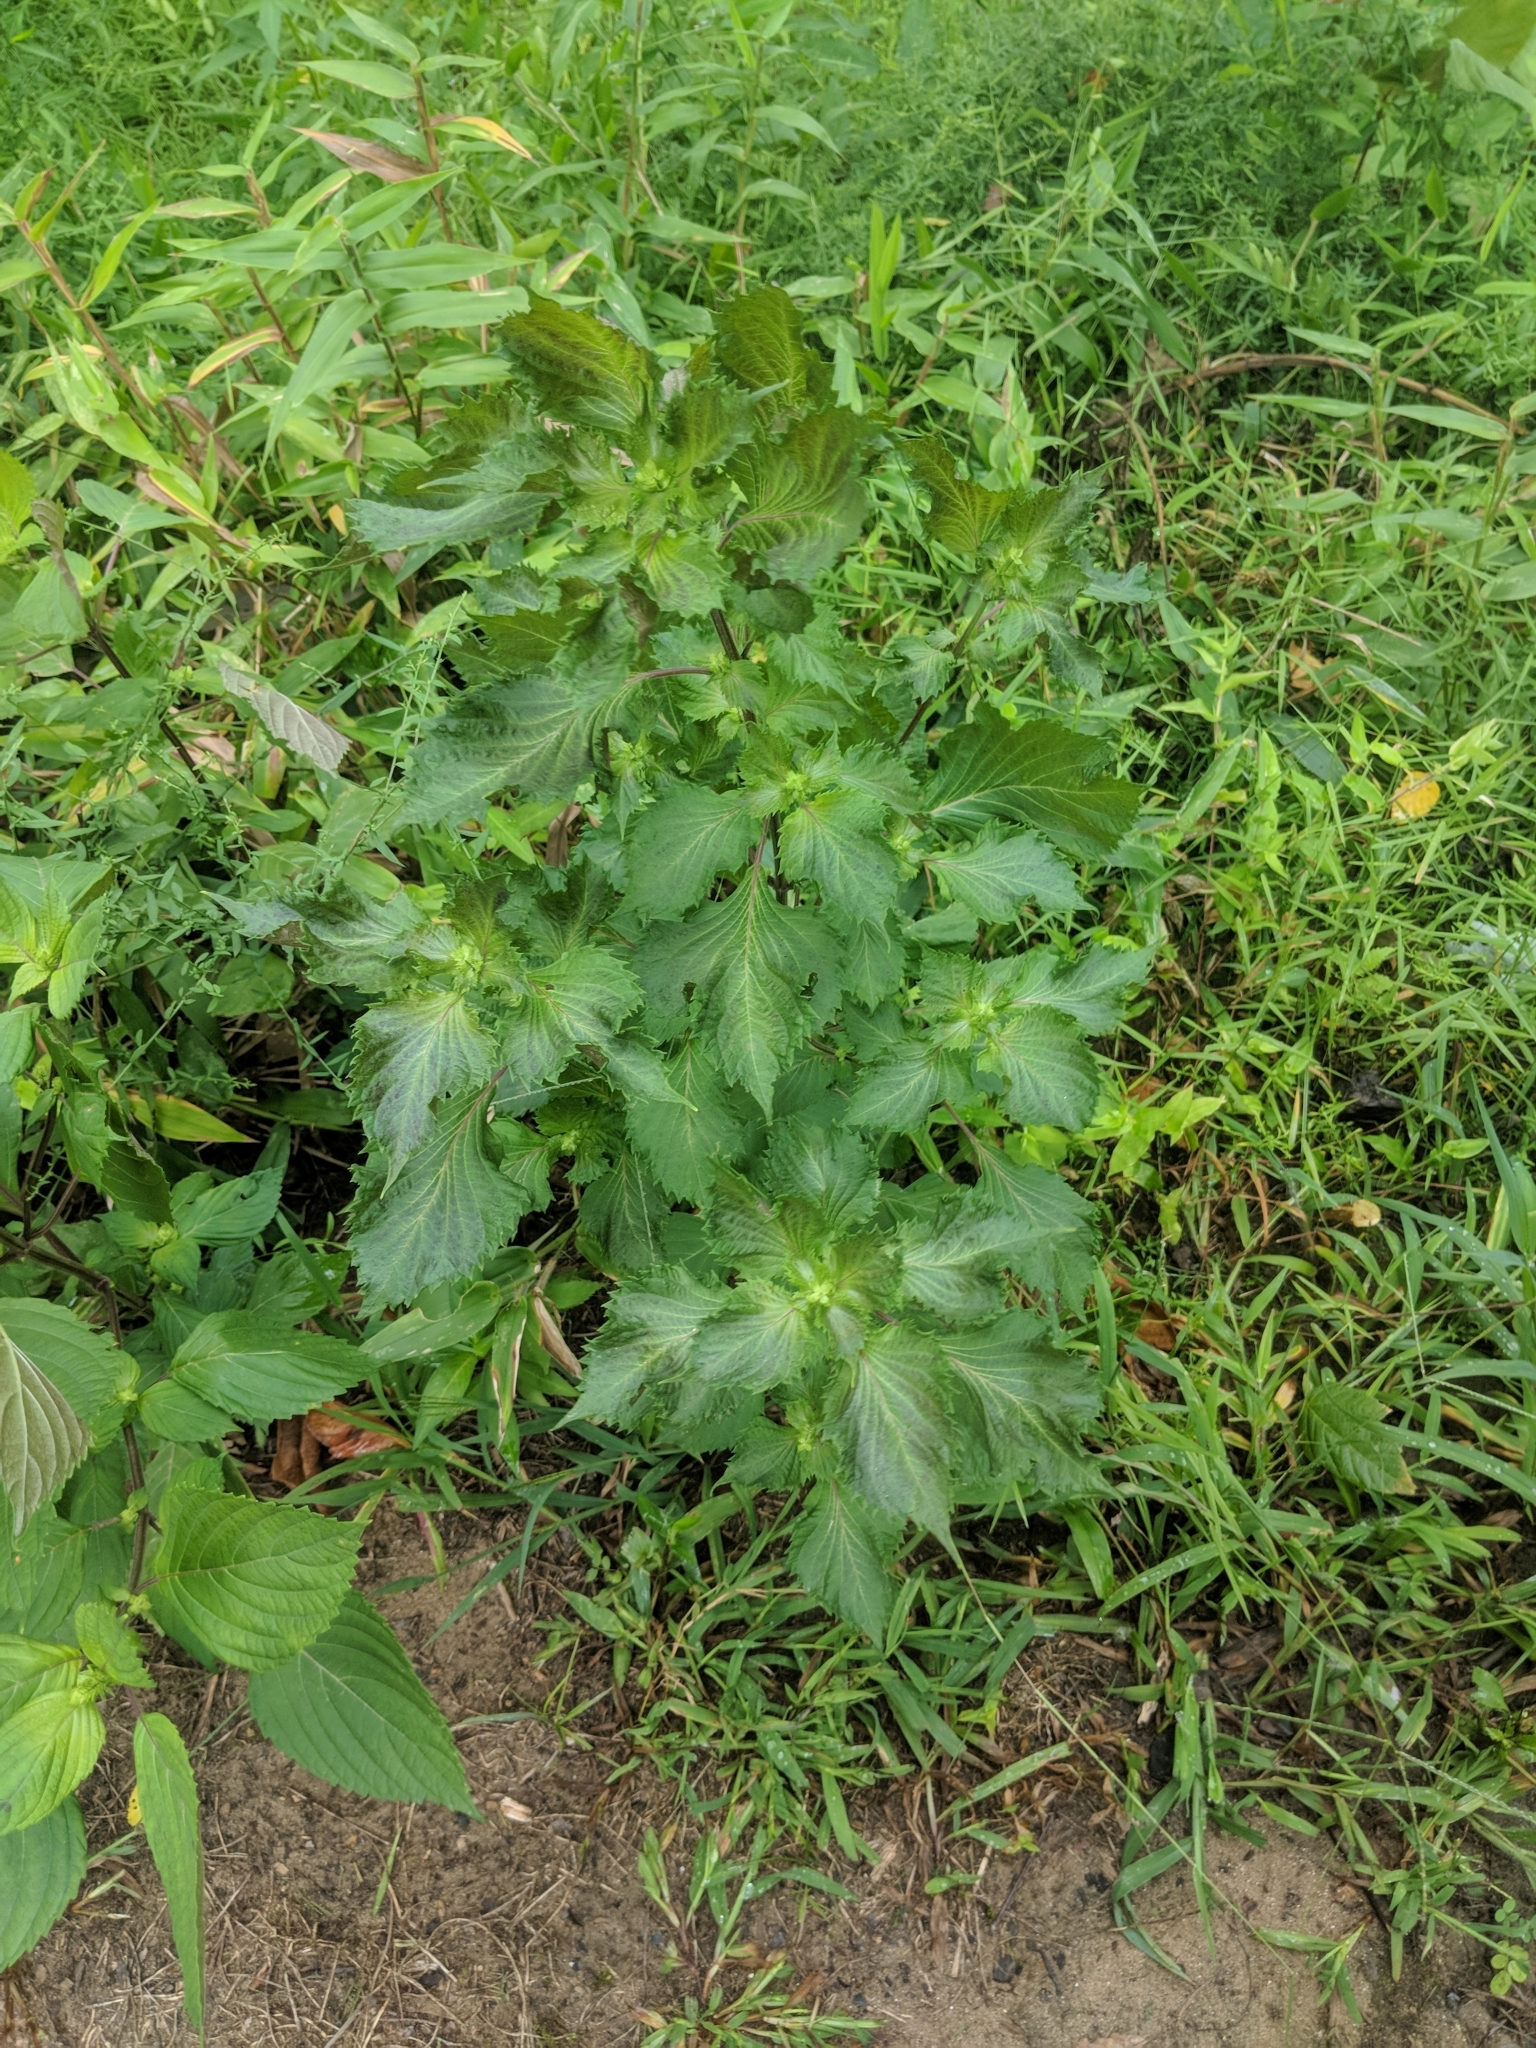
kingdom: Plantae
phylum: Tracheophyta
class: Magnoliopsida
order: Lamiales
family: Lamiaceae
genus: Perilla
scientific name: Perilla frutescens
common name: Perilla
